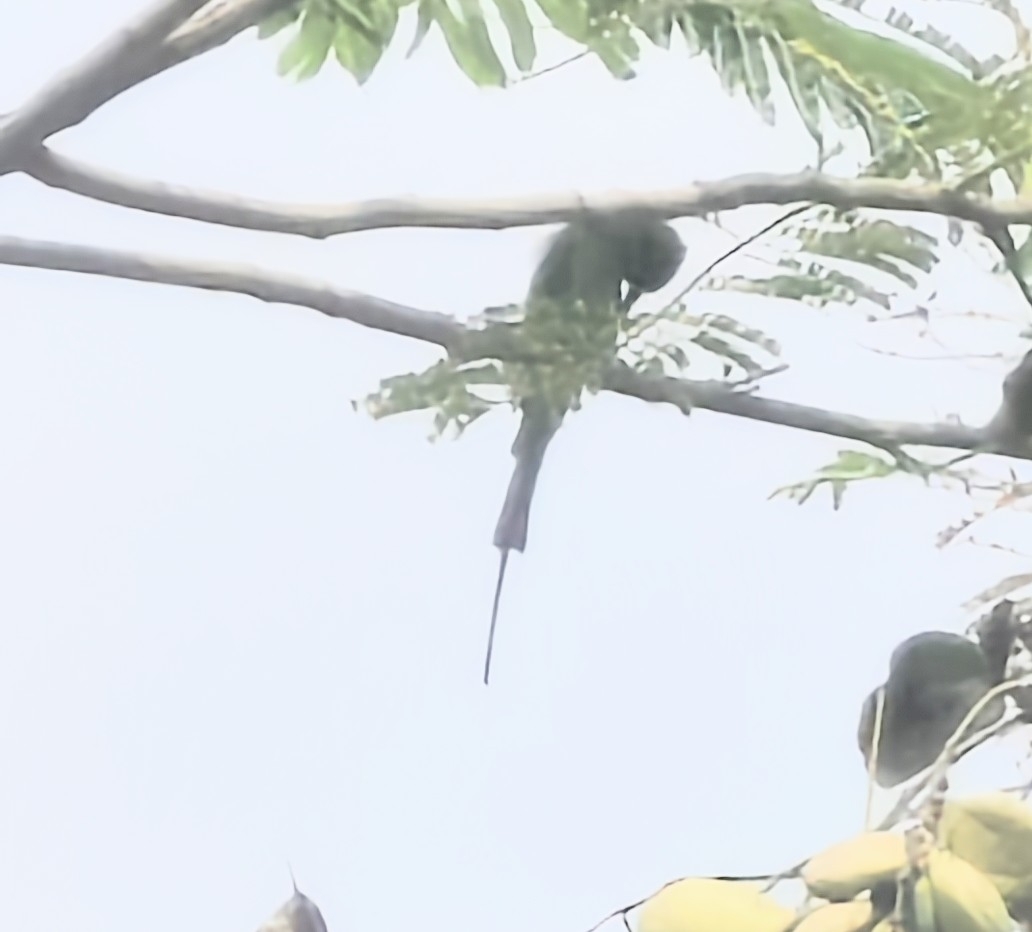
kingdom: Animalia
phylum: Chordata
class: Aves
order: Coraciiformes
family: Meropidae
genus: Merops
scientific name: Merops orientalis
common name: Green bee-eater
